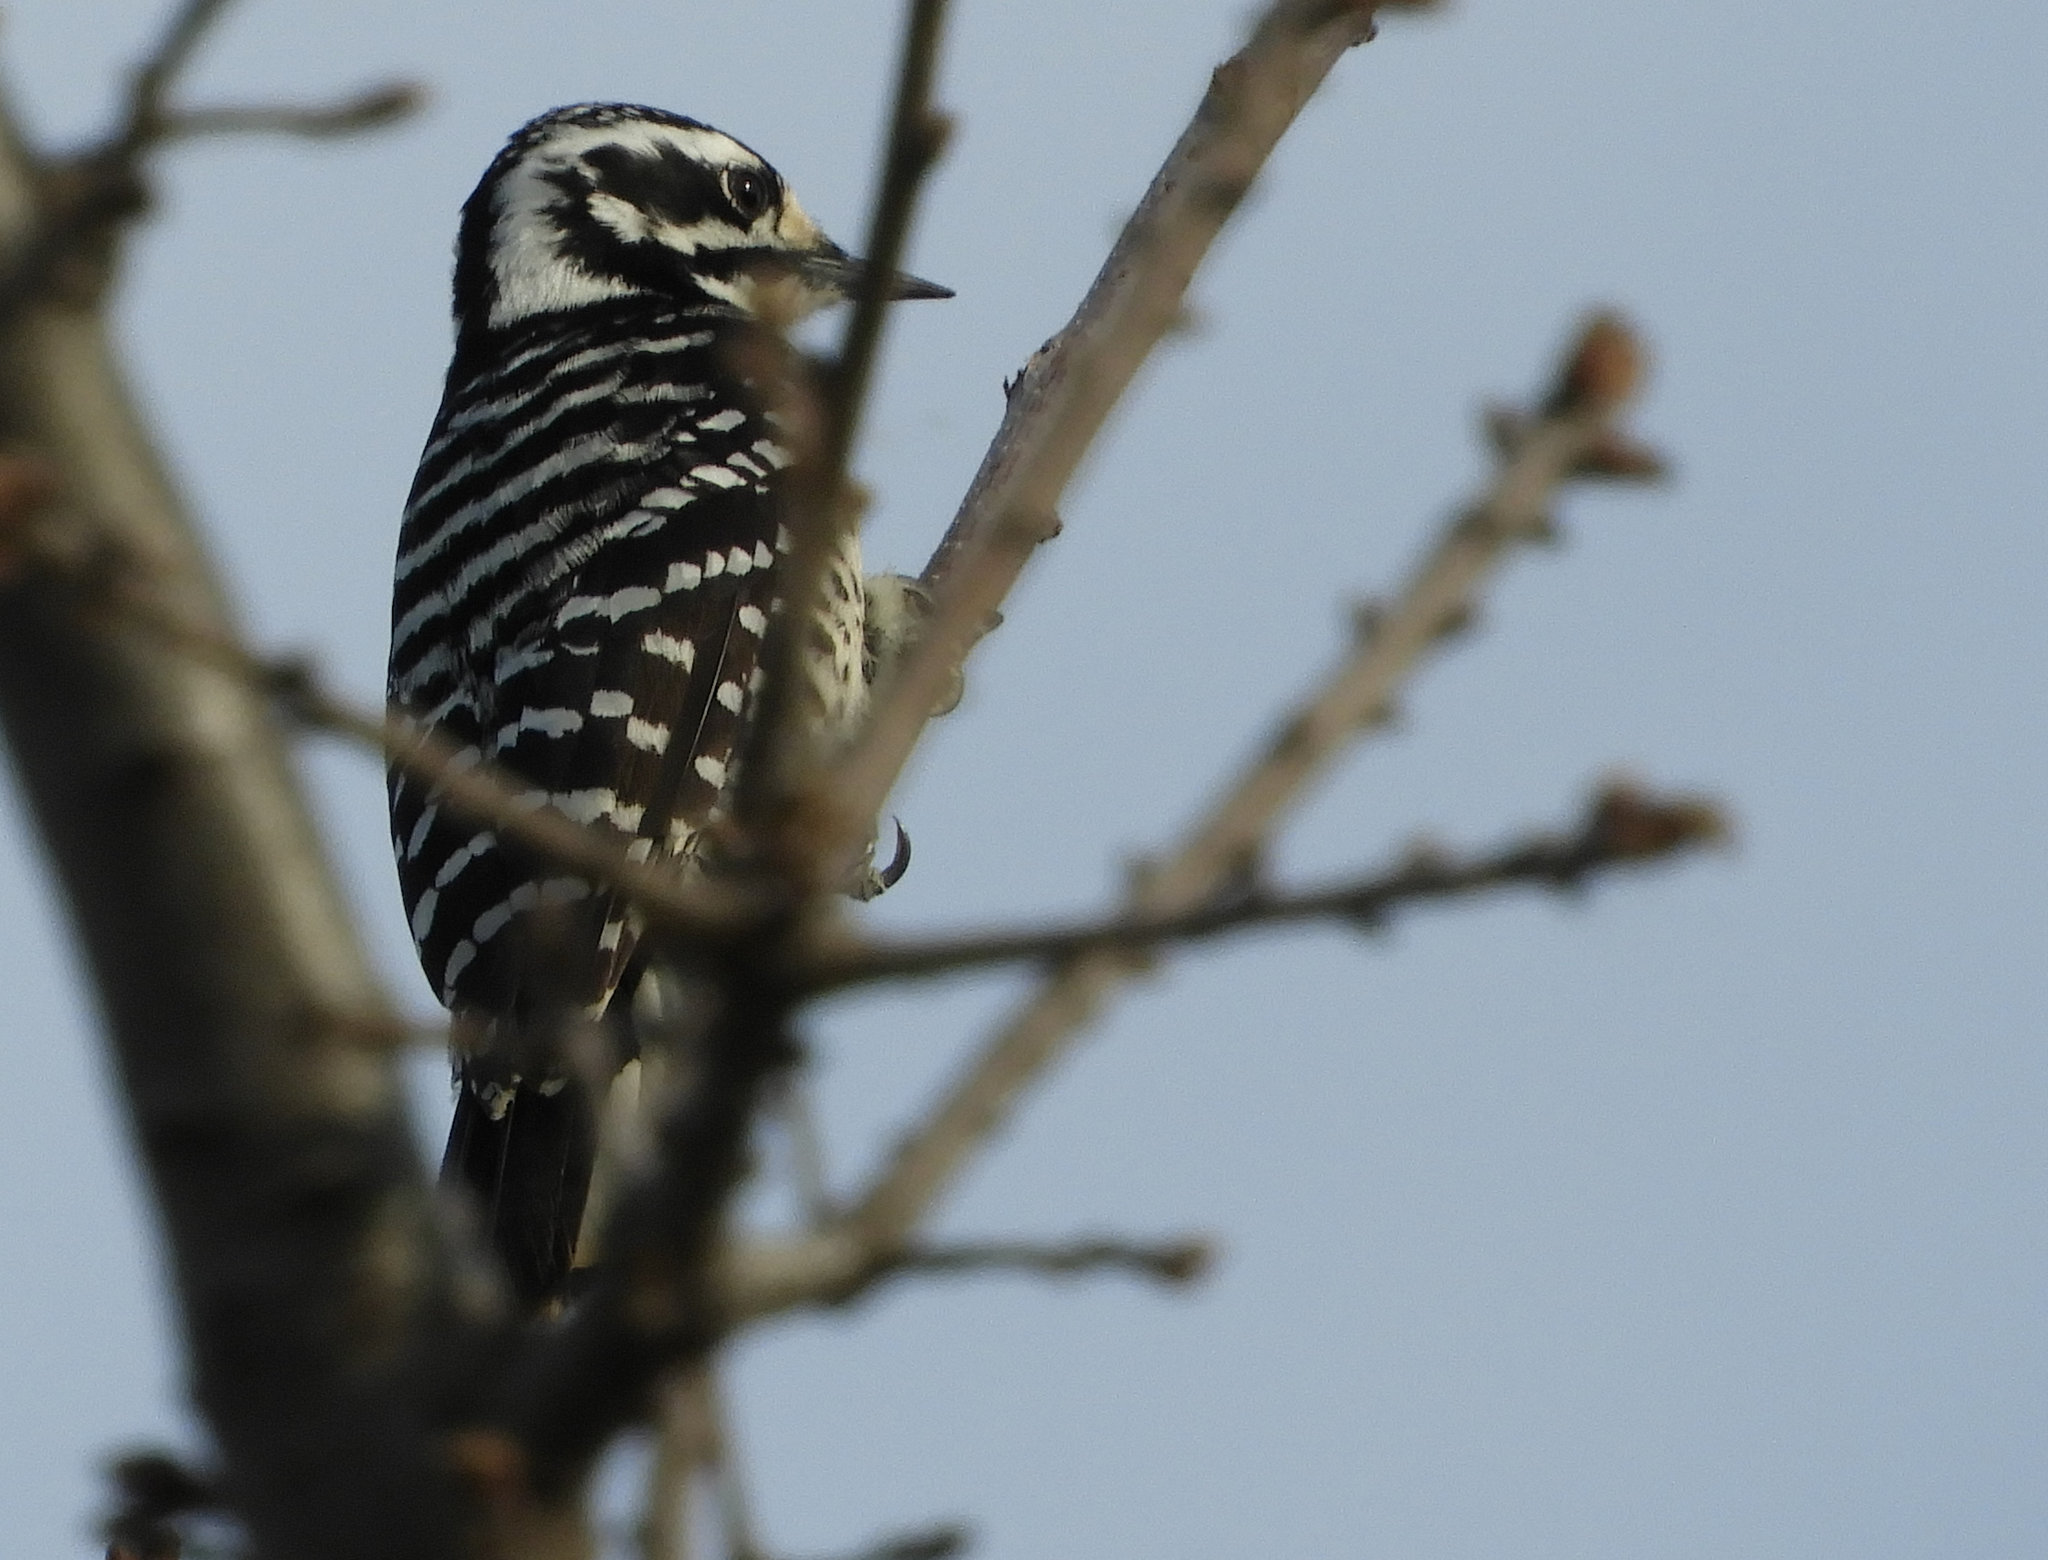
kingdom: Animalia
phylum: Chordata
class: Aves
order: Piciformes
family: Picidae
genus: Dryobates
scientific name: Dryobates nuttallii
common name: Nuttall's woodpecker
